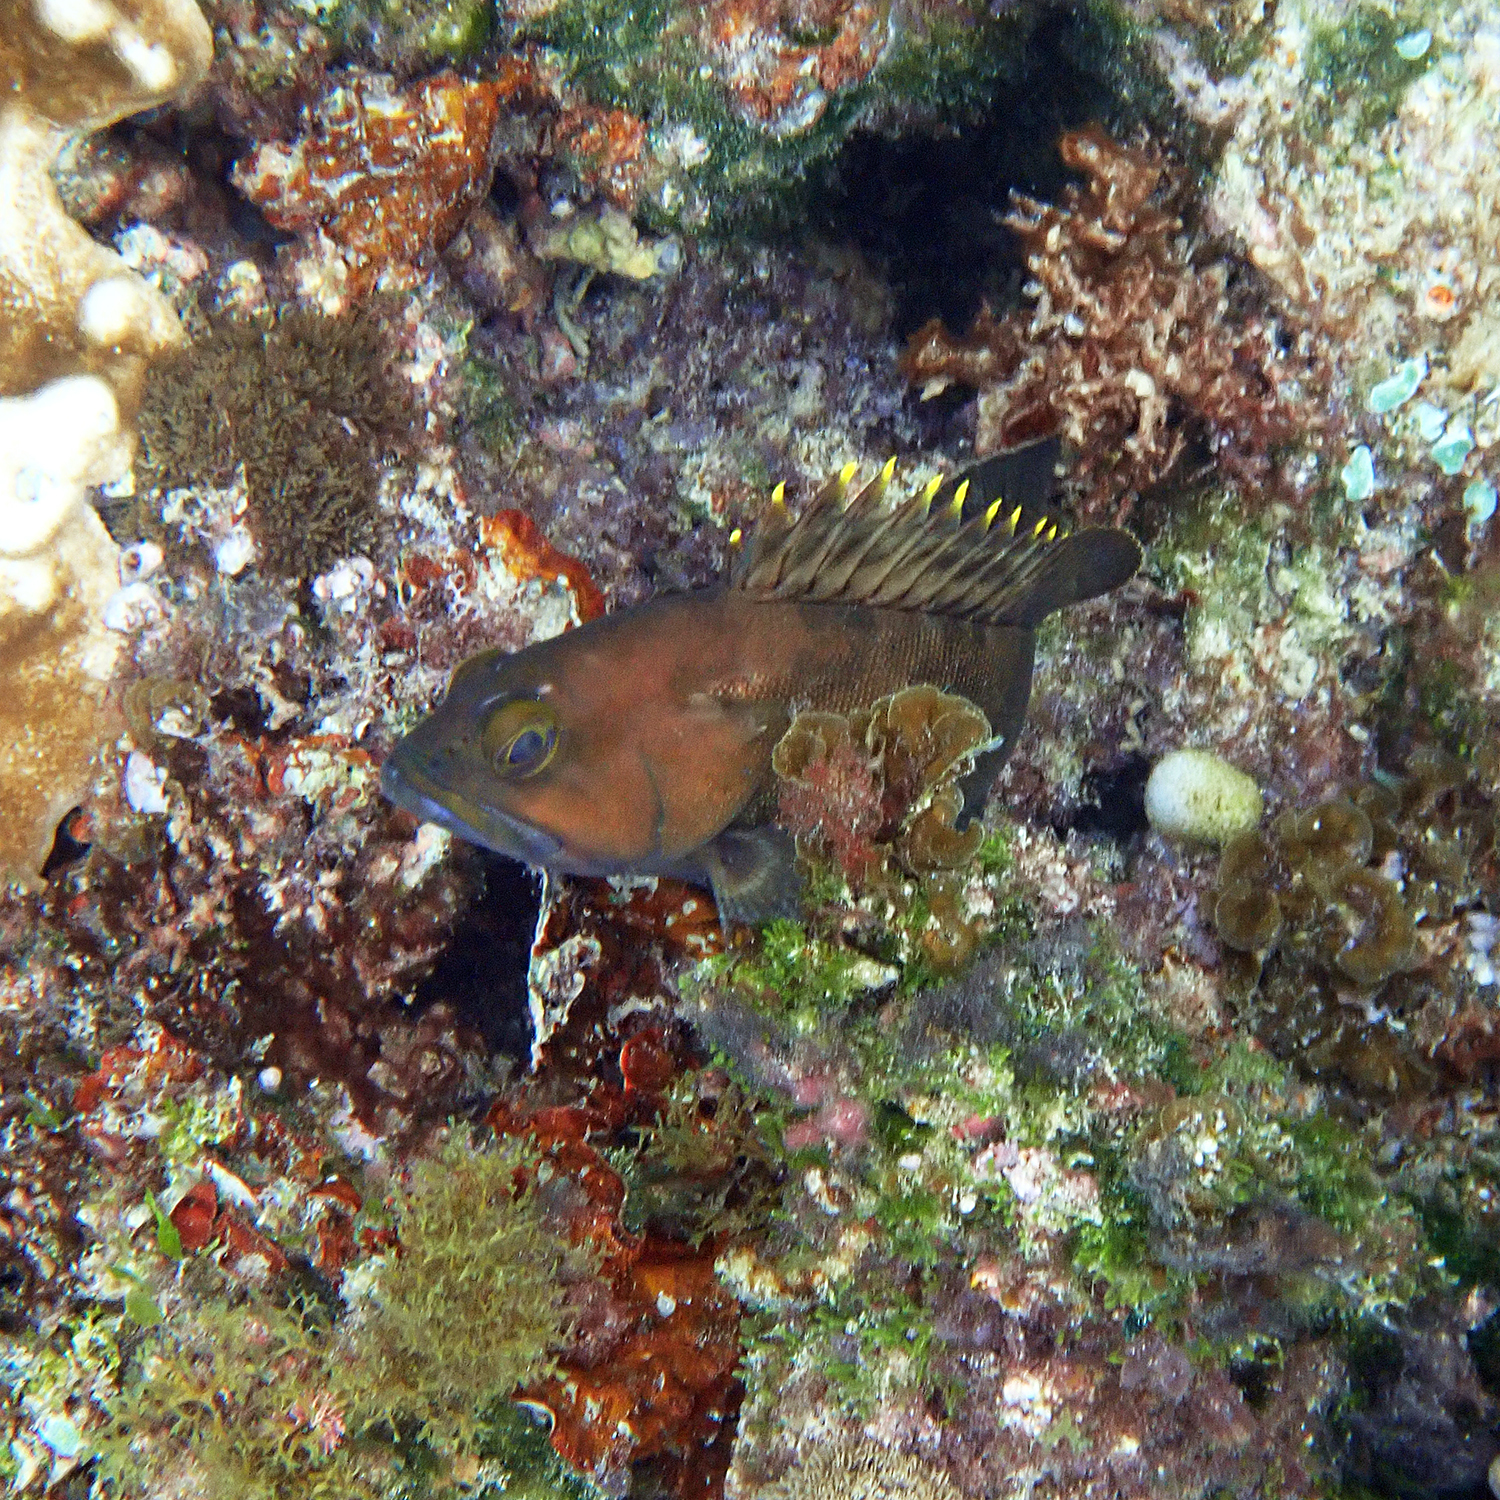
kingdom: Animalia
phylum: Chordata
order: Perciformes
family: Serranidae
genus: Epinephelus
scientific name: Epinephelus rivulatus
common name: Halfmoon grouper
